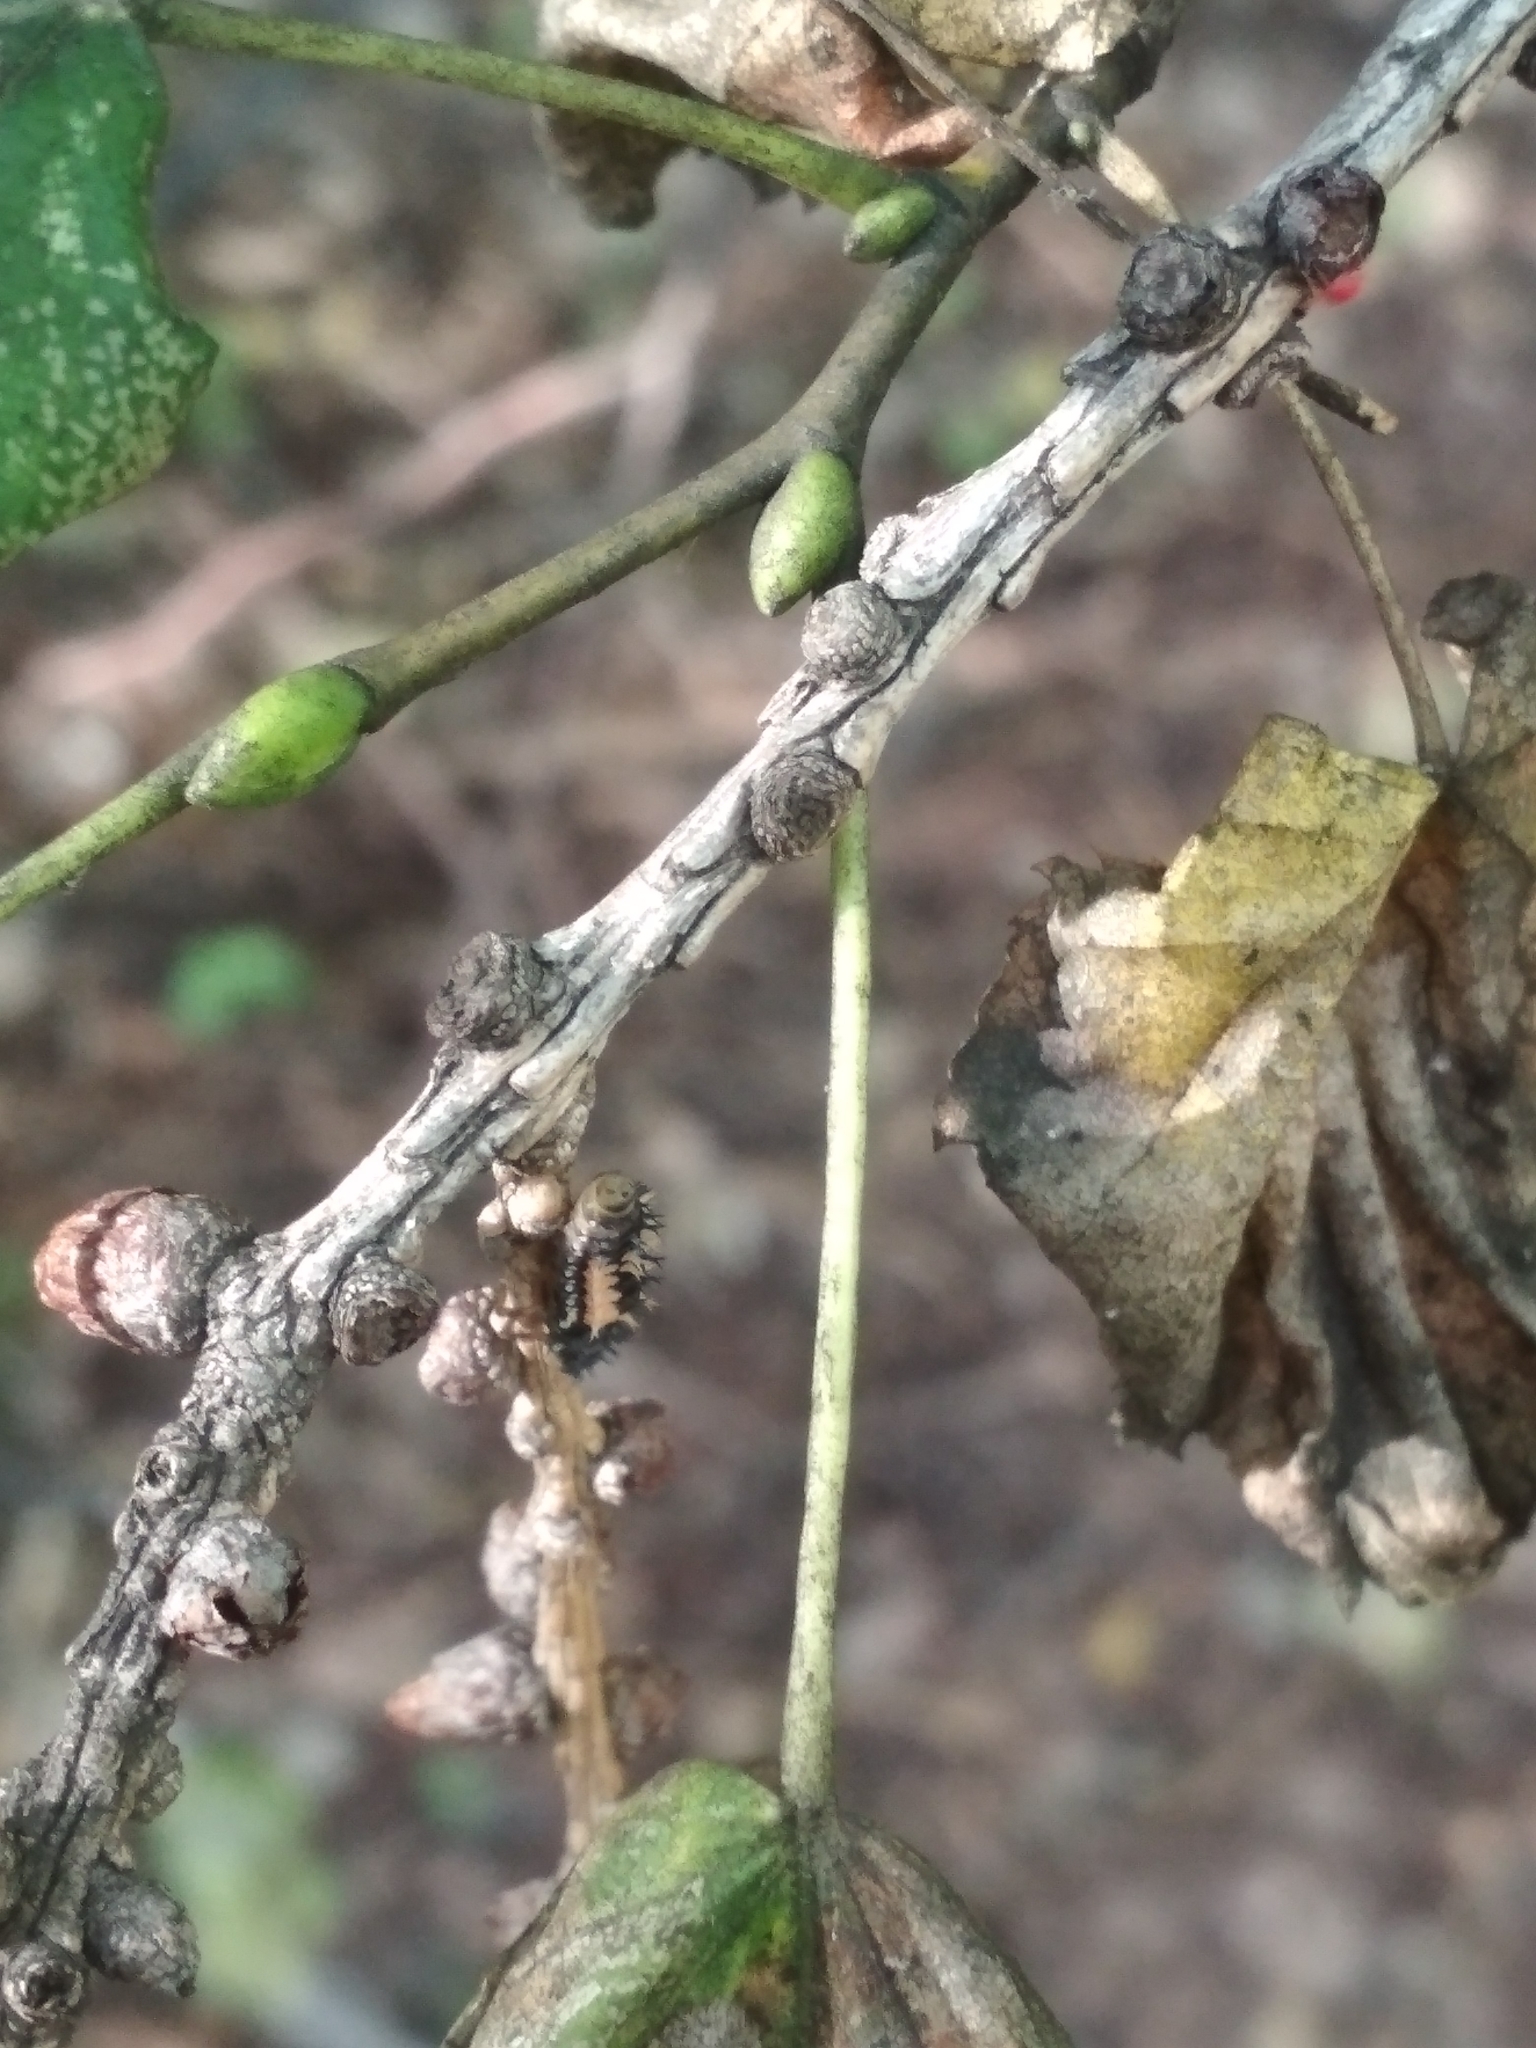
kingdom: Animalia
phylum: Arthropoda
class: Insecta
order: Coleoptera
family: Coccinellidae
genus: Harmonia
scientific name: Harmonia axyridis
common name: Harlequin ladybird
